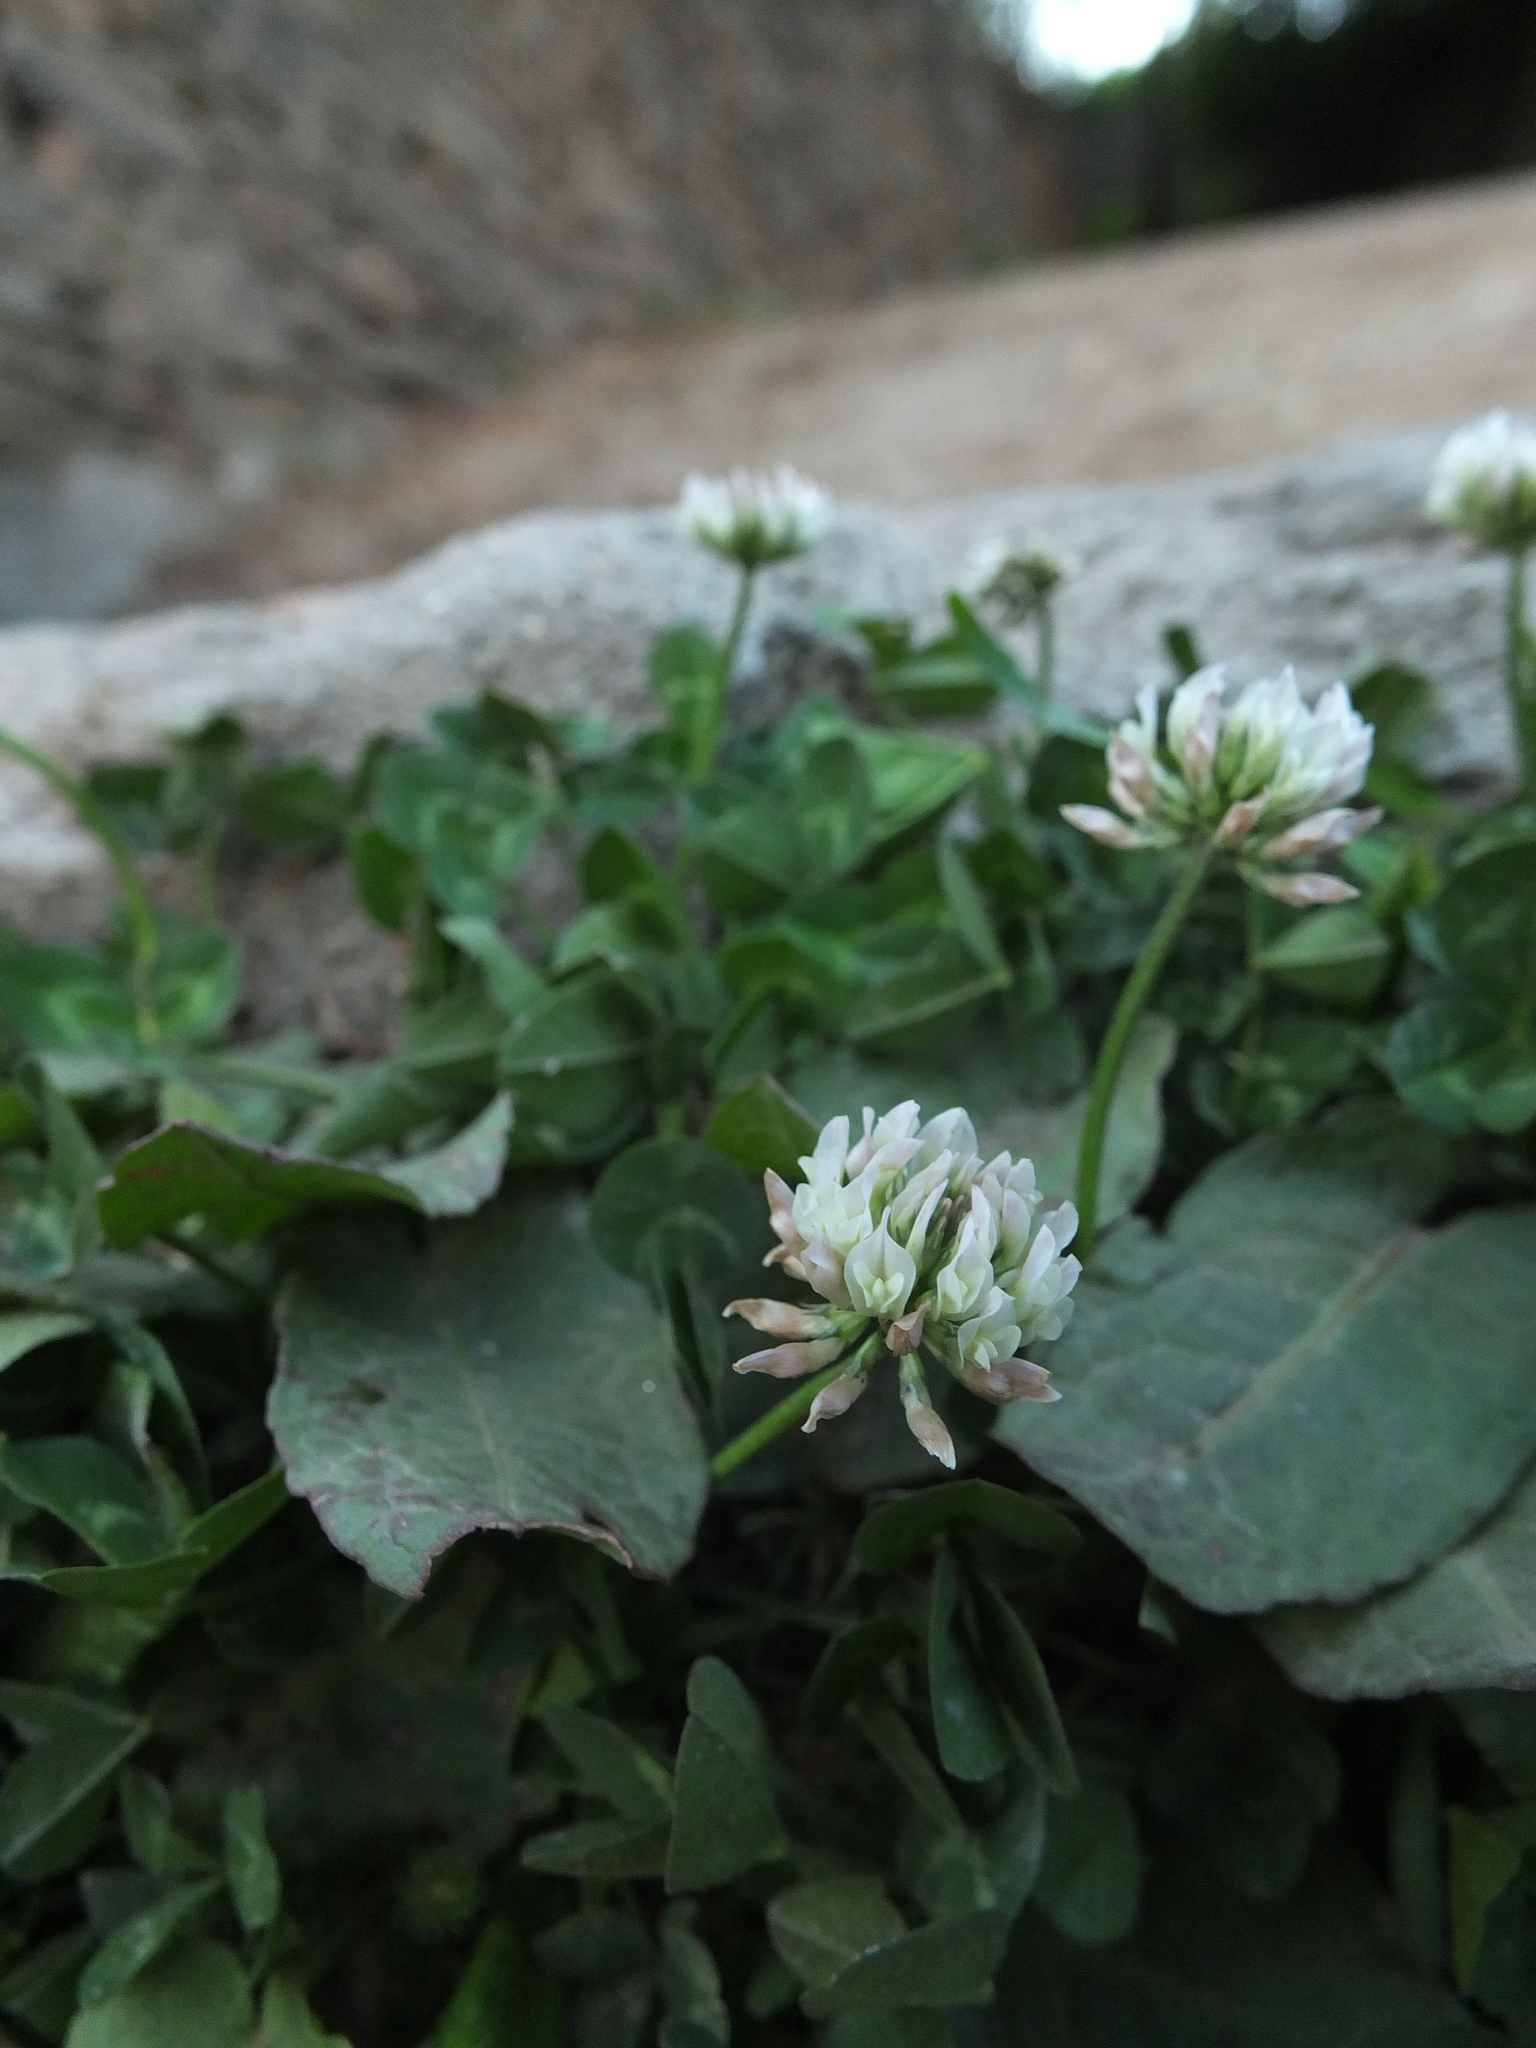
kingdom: Plantae
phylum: Tracheophyta
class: Magnoliopsida
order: Fabales
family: Fabaceae
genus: Trifolium
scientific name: Trifolium repens
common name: White clover
